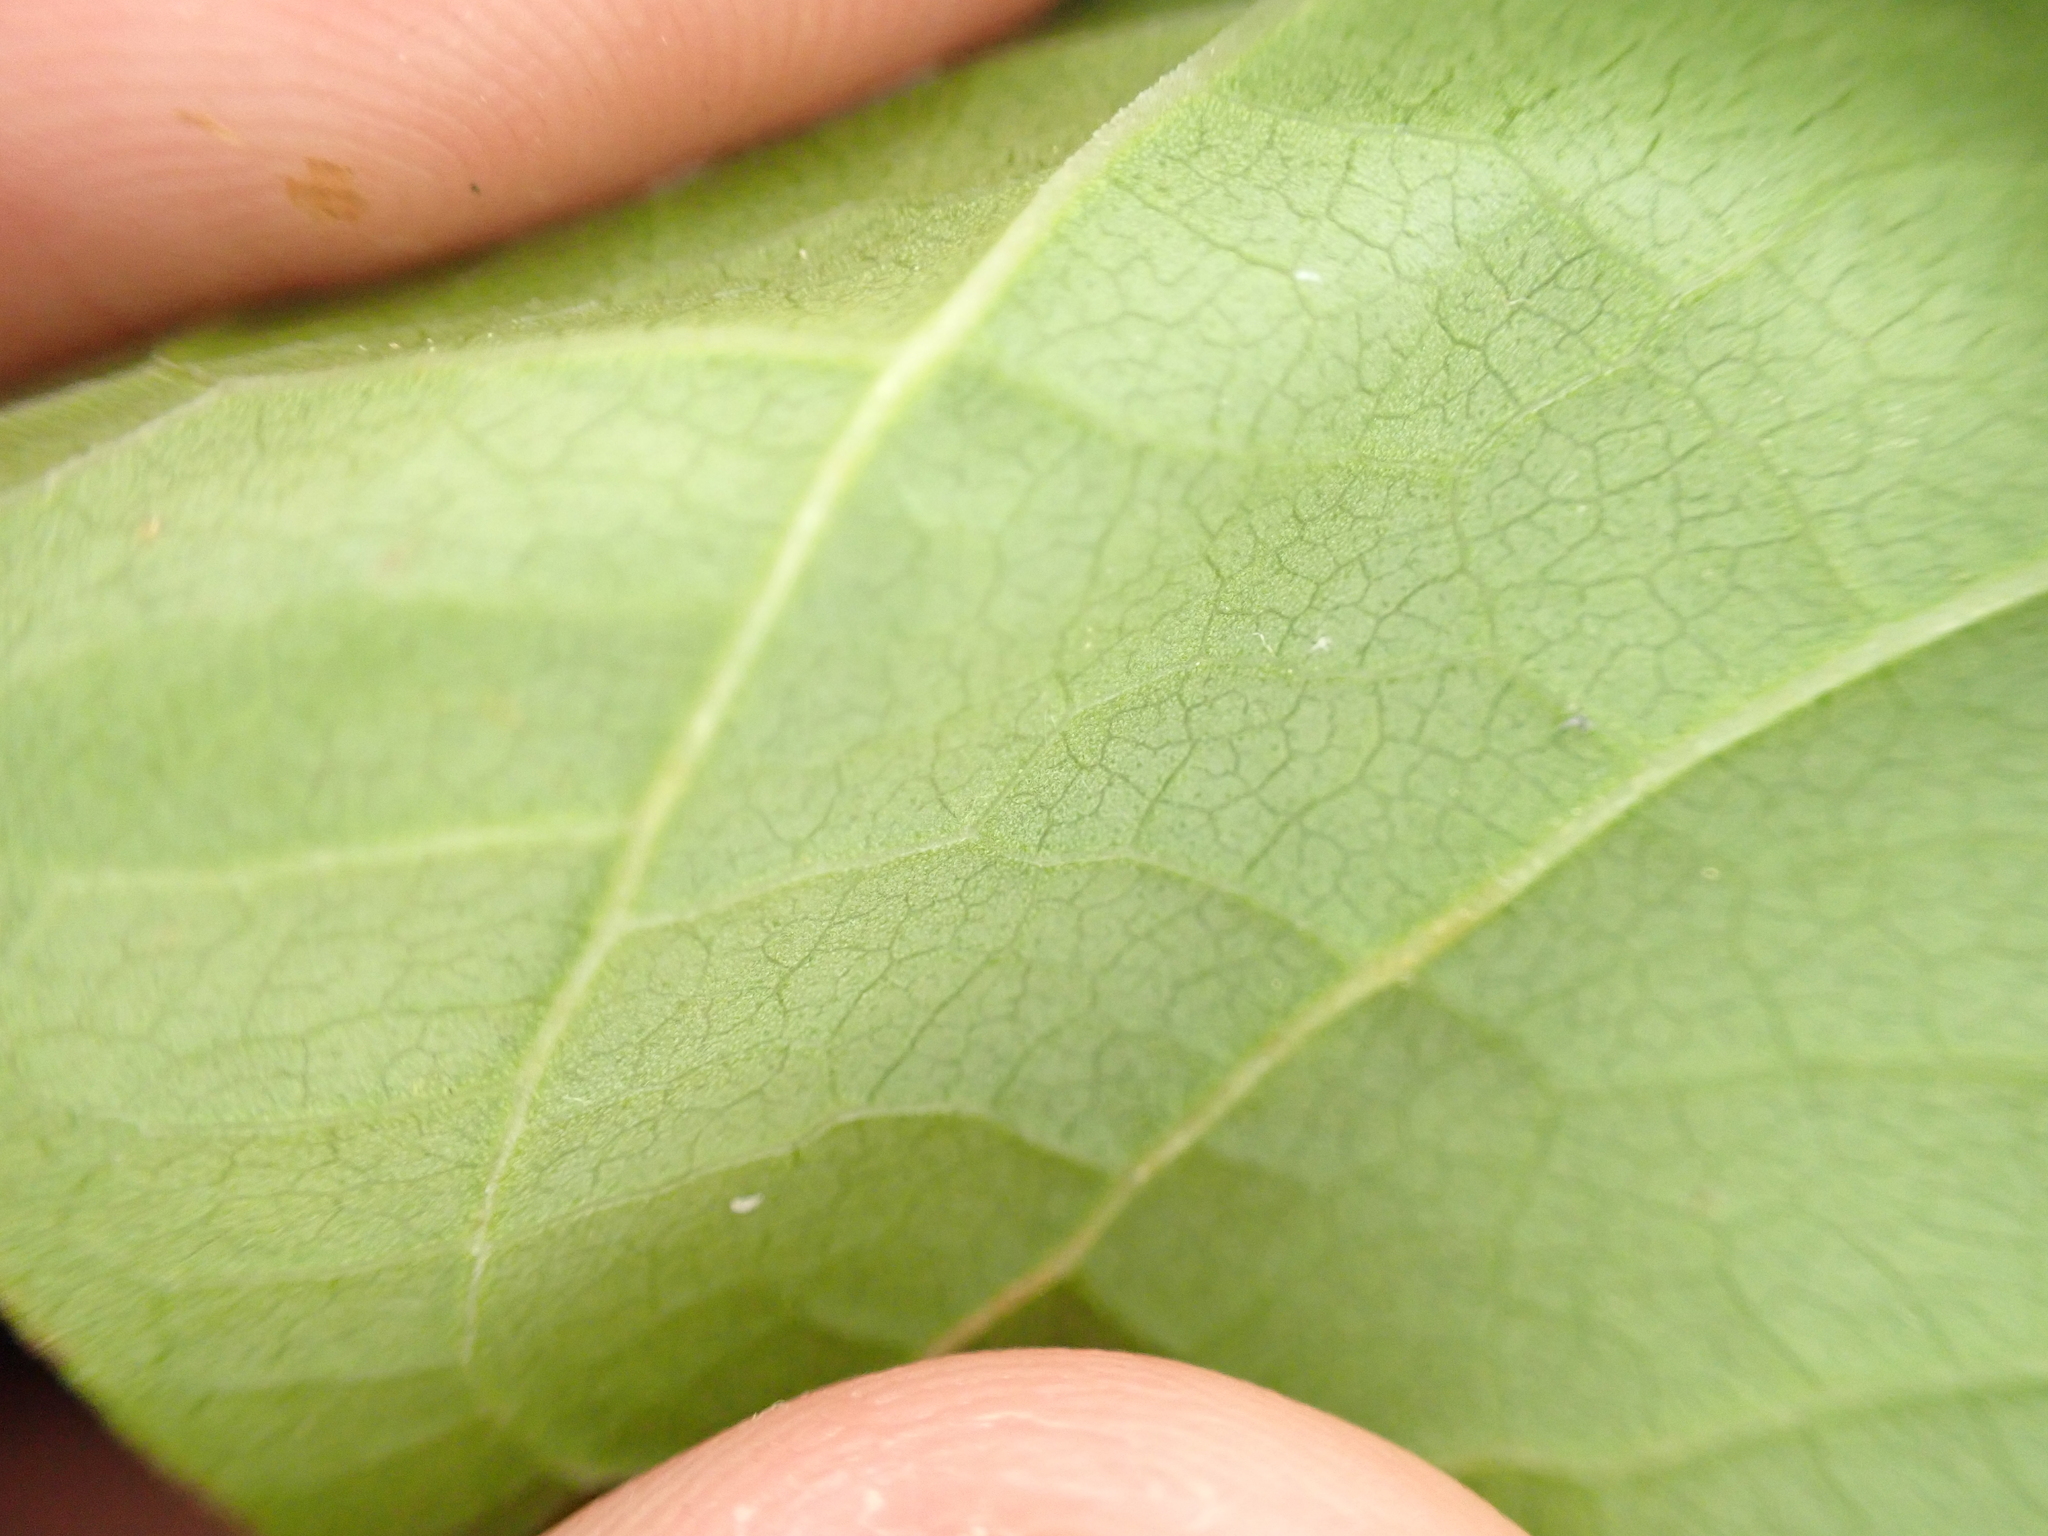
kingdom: Plantae
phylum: Tracheophyta
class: Magnoliopsida
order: Caryophyllales
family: Polygonaceae
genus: Reynoutria
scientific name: Reynoutria japonica
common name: Japanese knotweed
